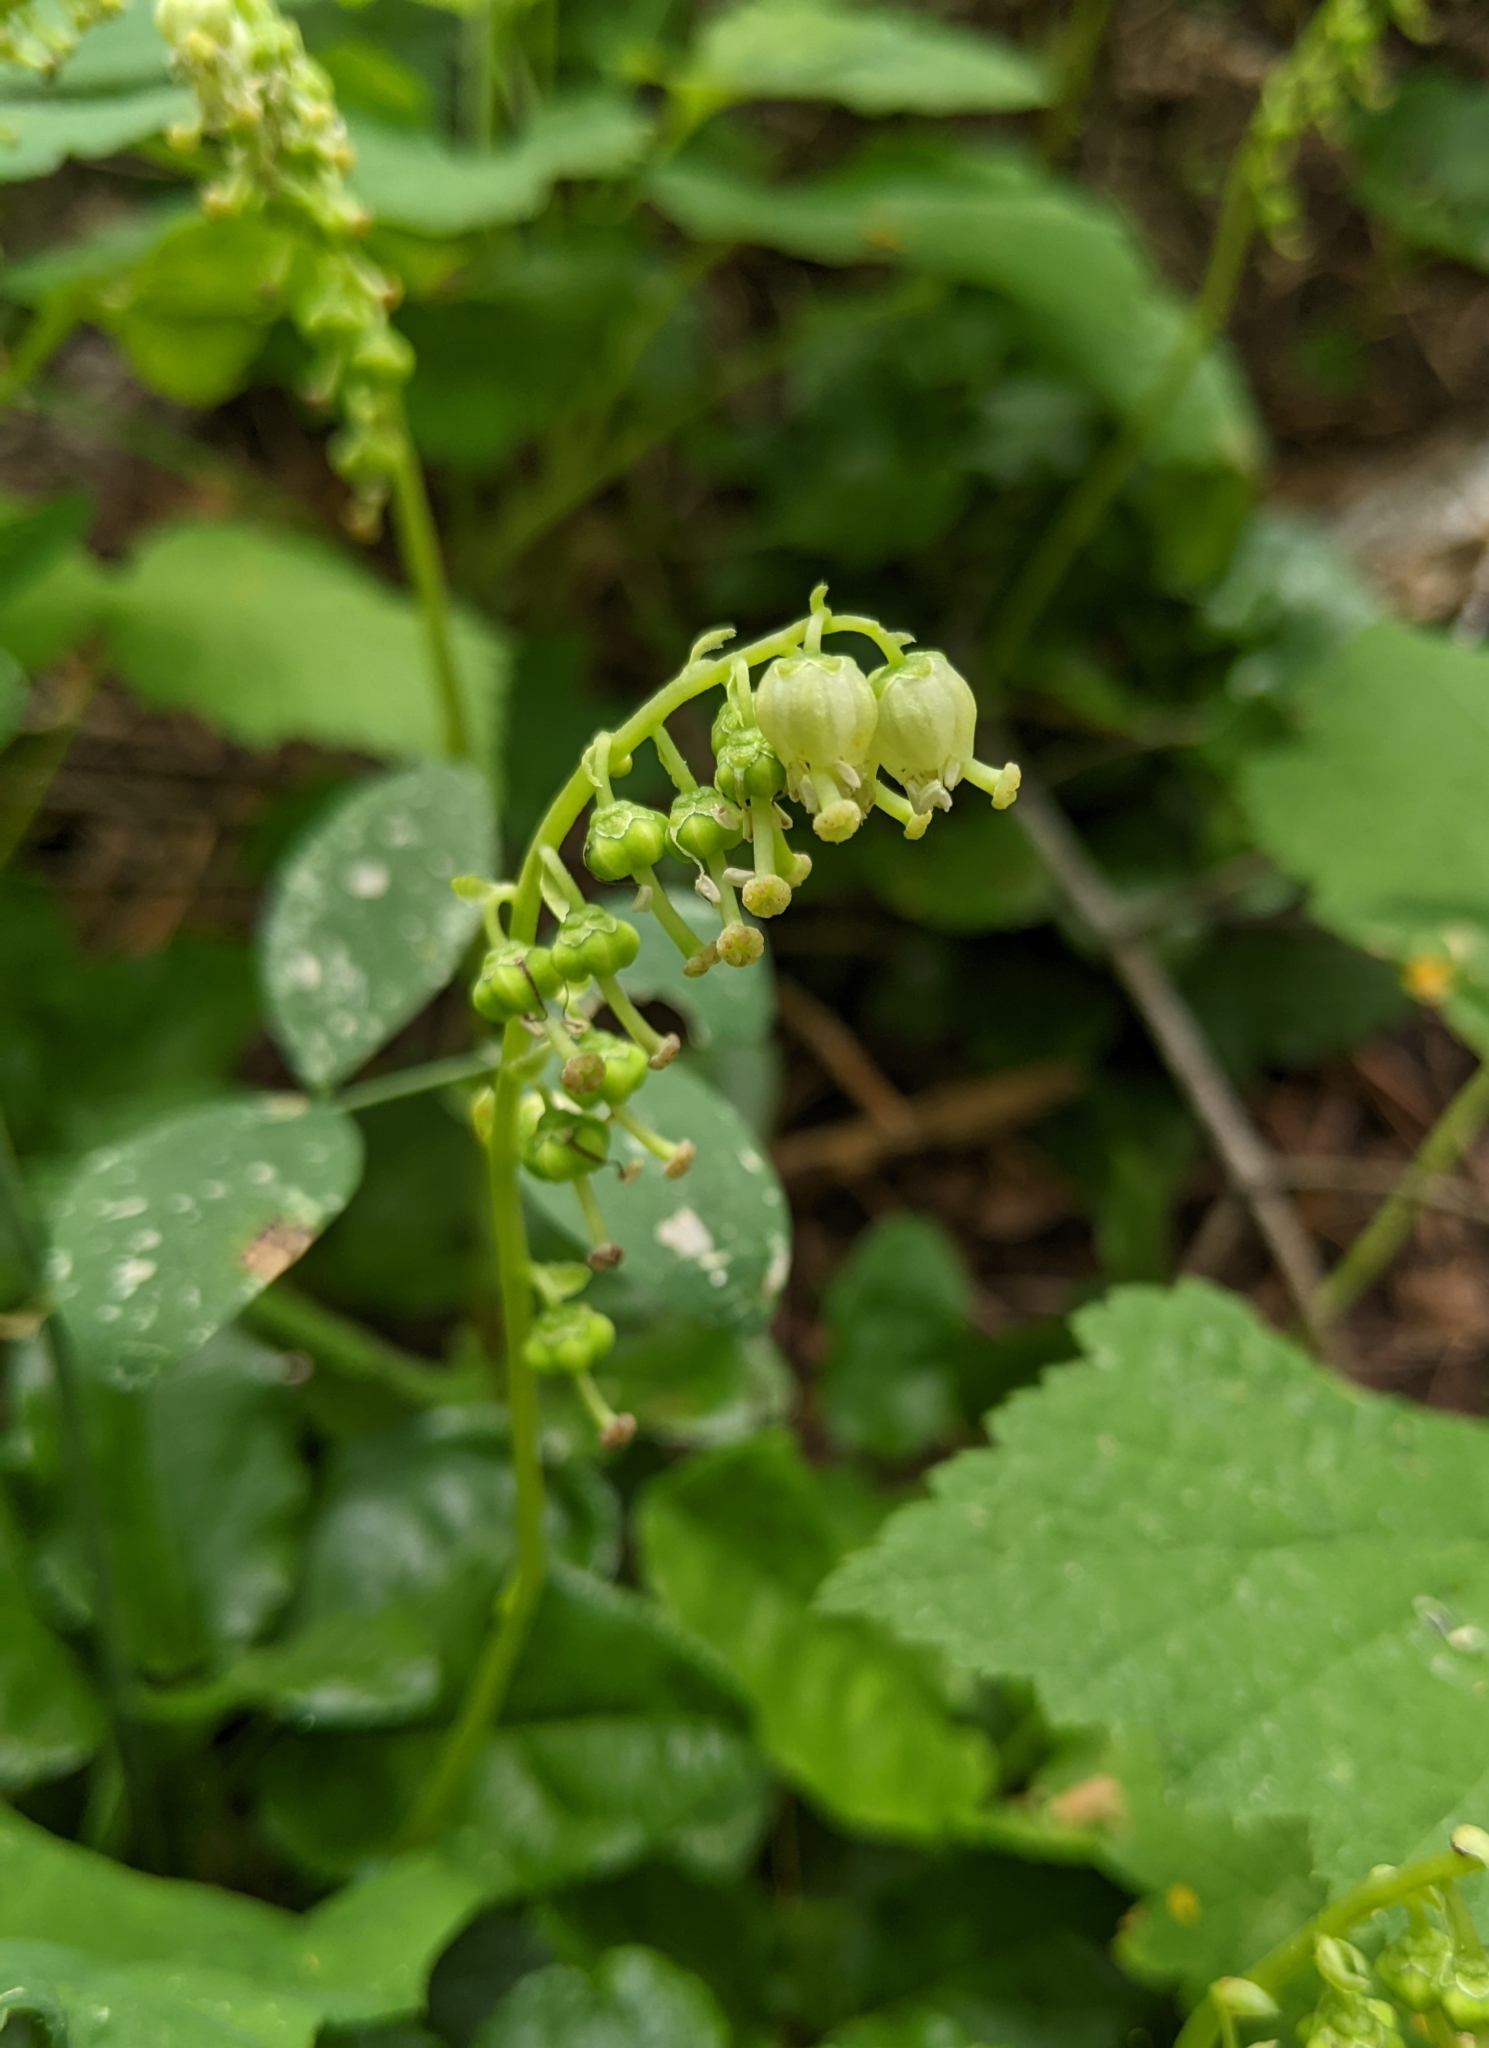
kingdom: Plantae
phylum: Tracheophyta
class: Magnoliopsida
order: Ericales
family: Ericaceae
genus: Orthilia
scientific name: Orthilia secunda
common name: One-sided orthilia
